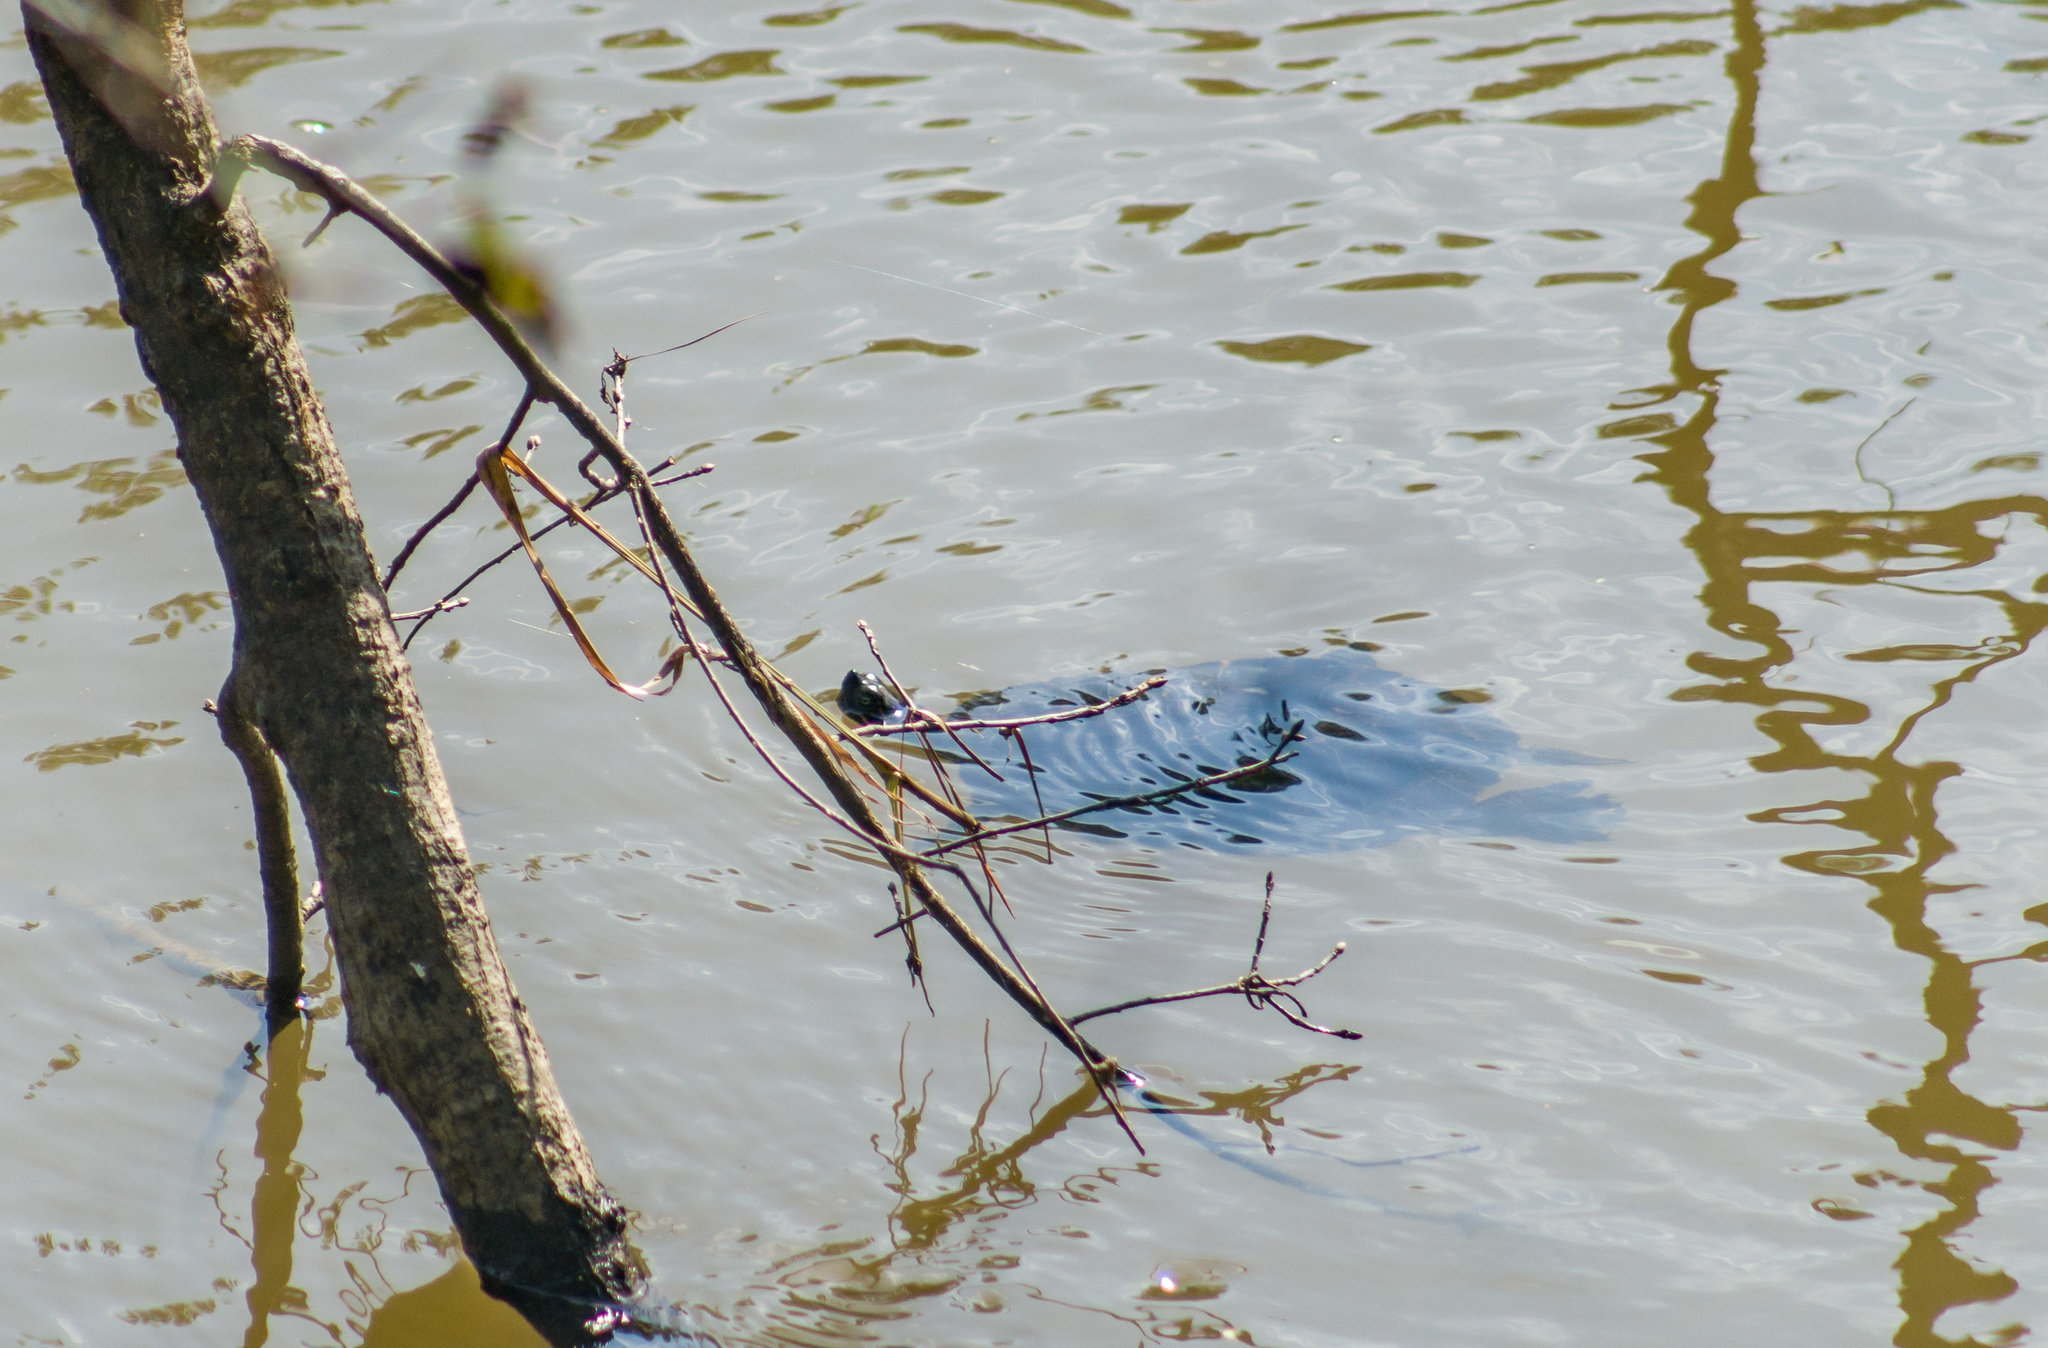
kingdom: Animalia
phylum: Chordata
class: Testudines
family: Emydidae
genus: Pseudemys
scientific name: Pseudemys concinna
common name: Eastern river cooter
